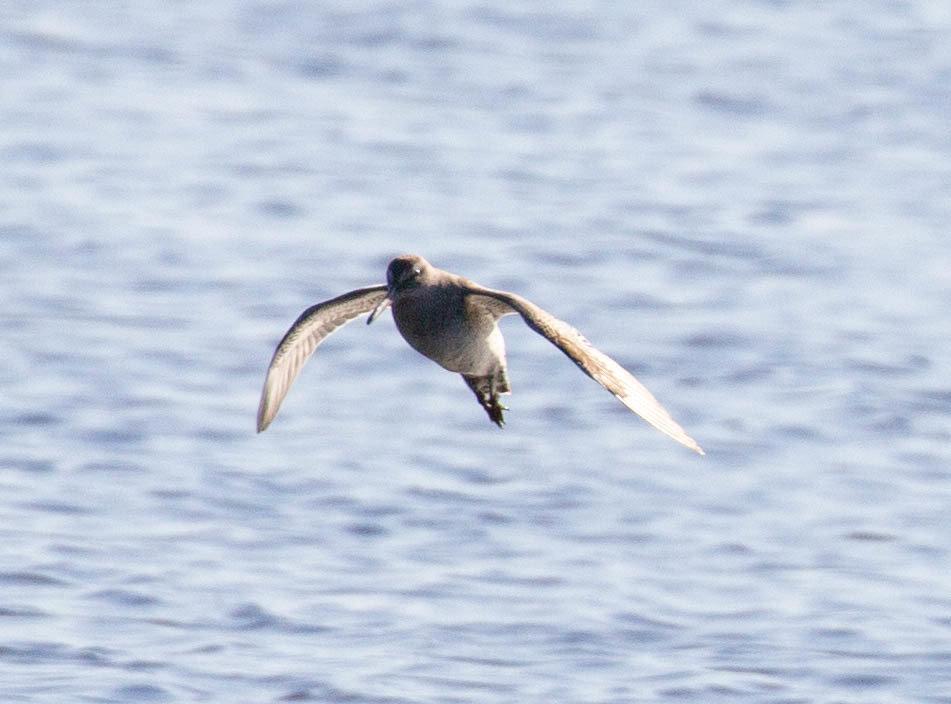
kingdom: Animalia
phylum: Chordata
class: Aves
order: Charadriiformes
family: Scolopacidae
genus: Limnodromus
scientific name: Limnodromus griseus
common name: Short-billed dowitcher
